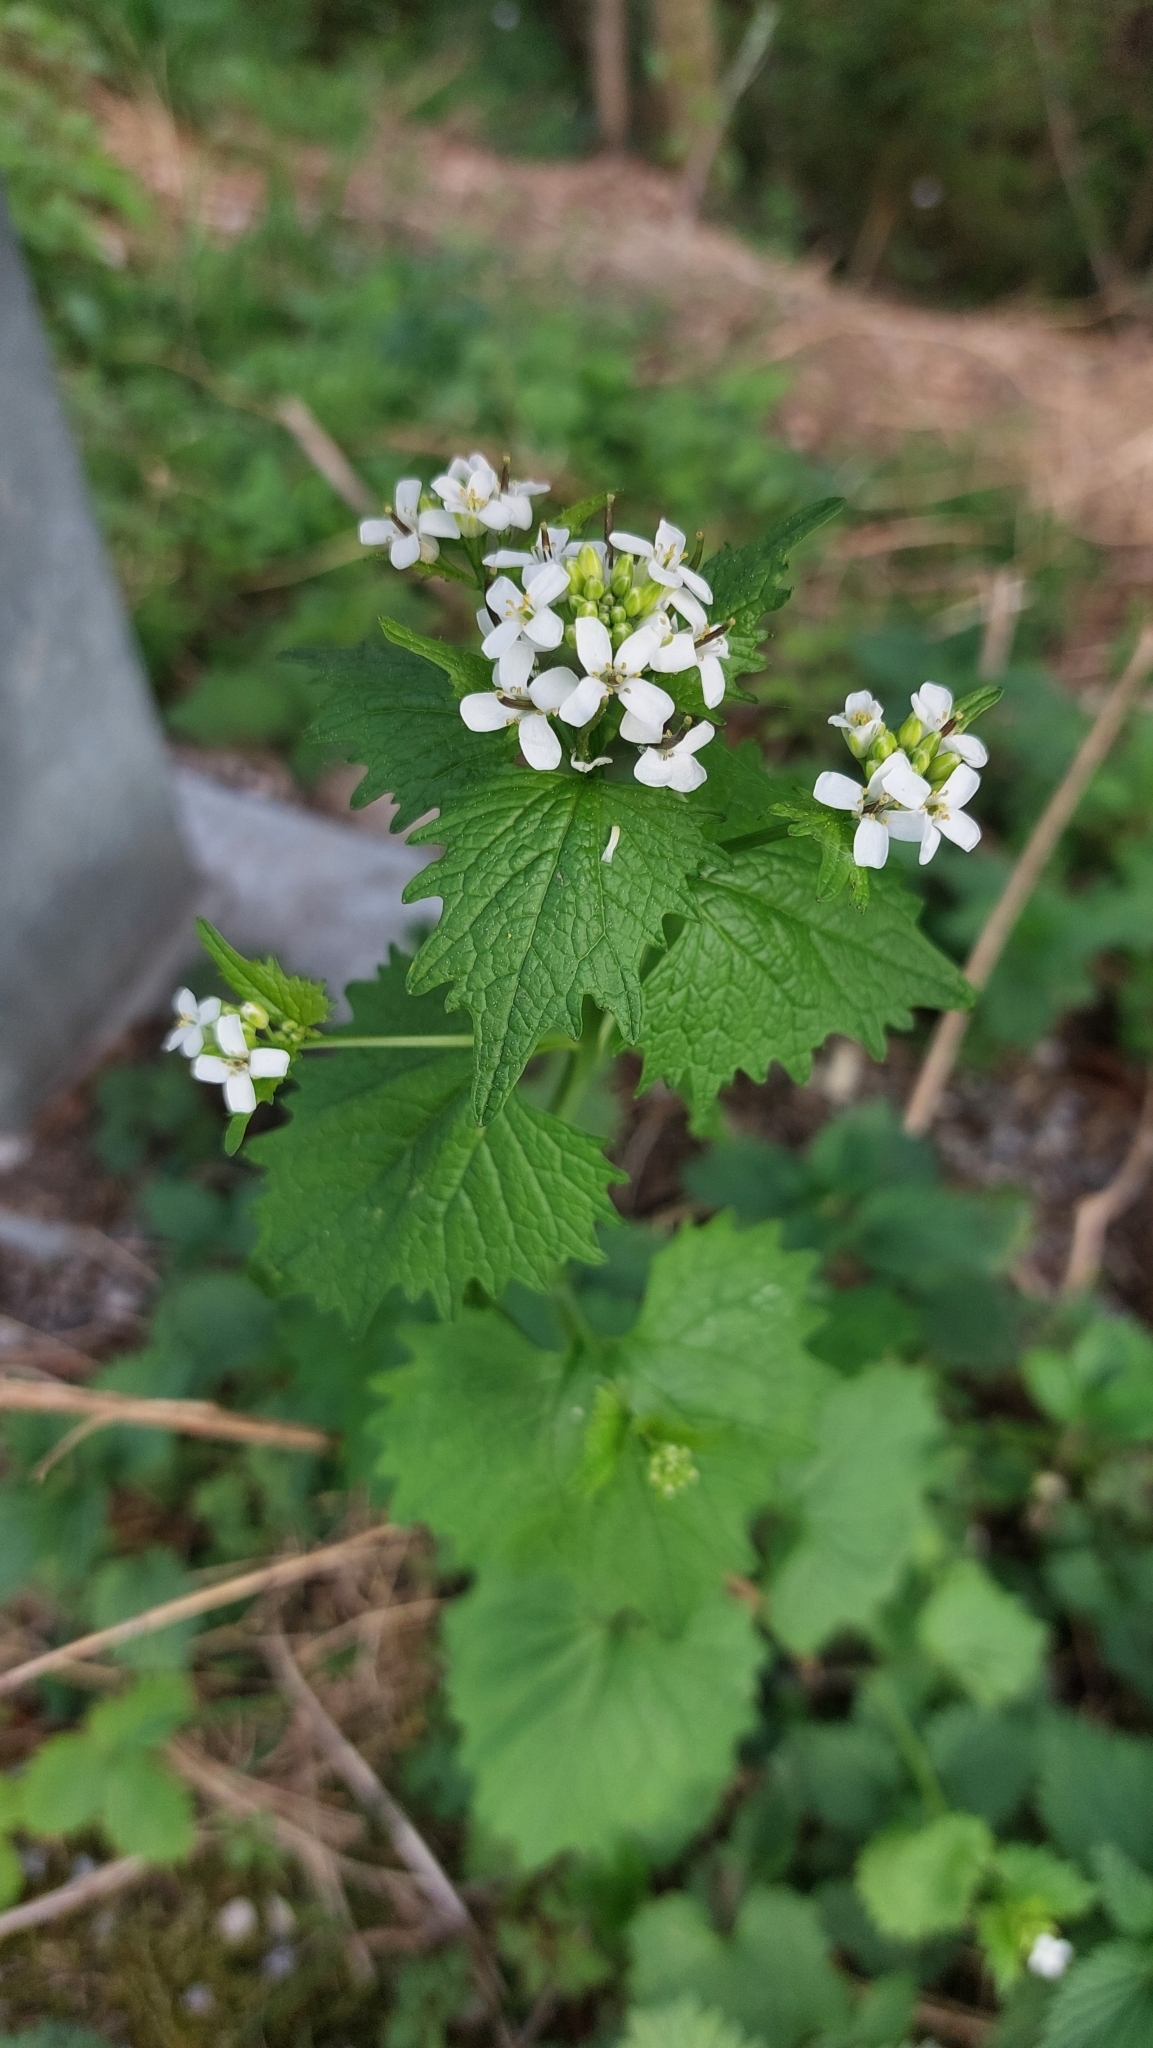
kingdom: Plantae
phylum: Tracheophyta
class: Magnoliopsida
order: Brassicales
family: Brassicaceae
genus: Alliaria
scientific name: Alliaria petiolata
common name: Garlic mustard
